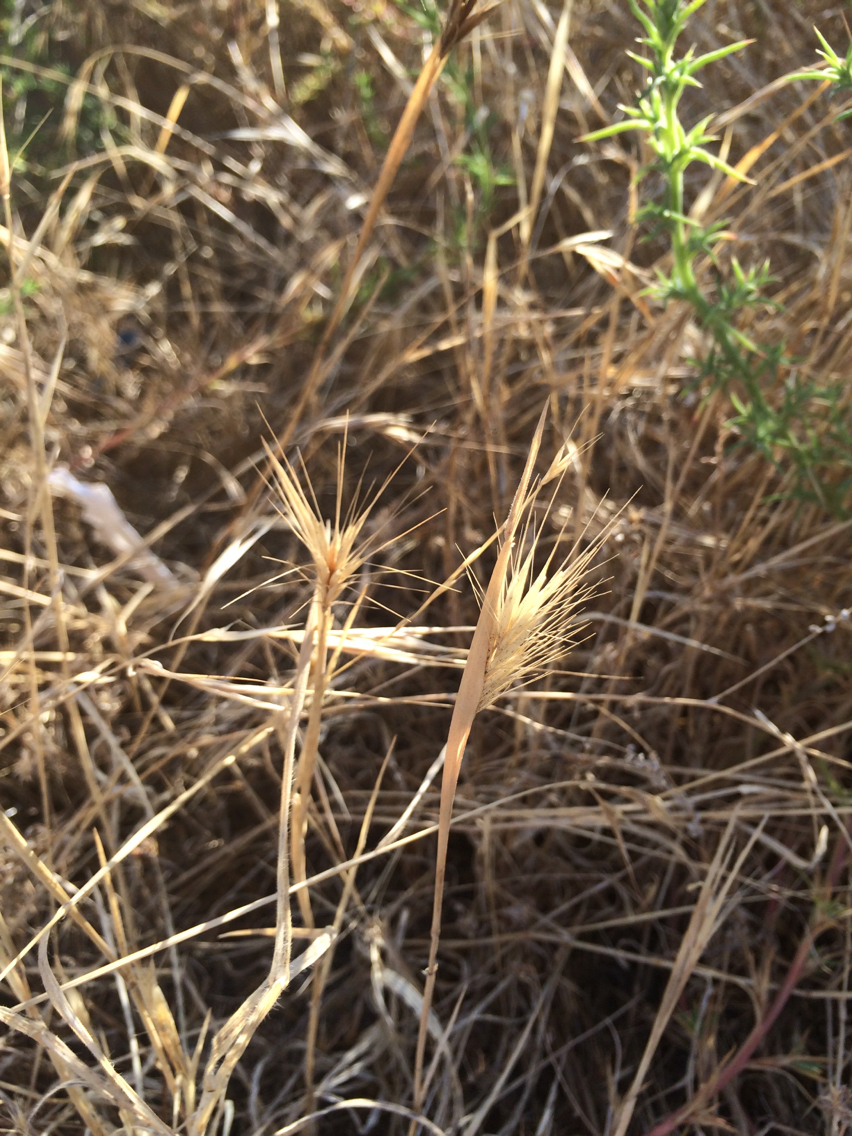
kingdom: Plantae
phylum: Tracheophyta
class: Liliopsida
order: Poales
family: Poaceae
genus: Hordeum
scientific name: Hordeum murinum
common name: Wall barley
